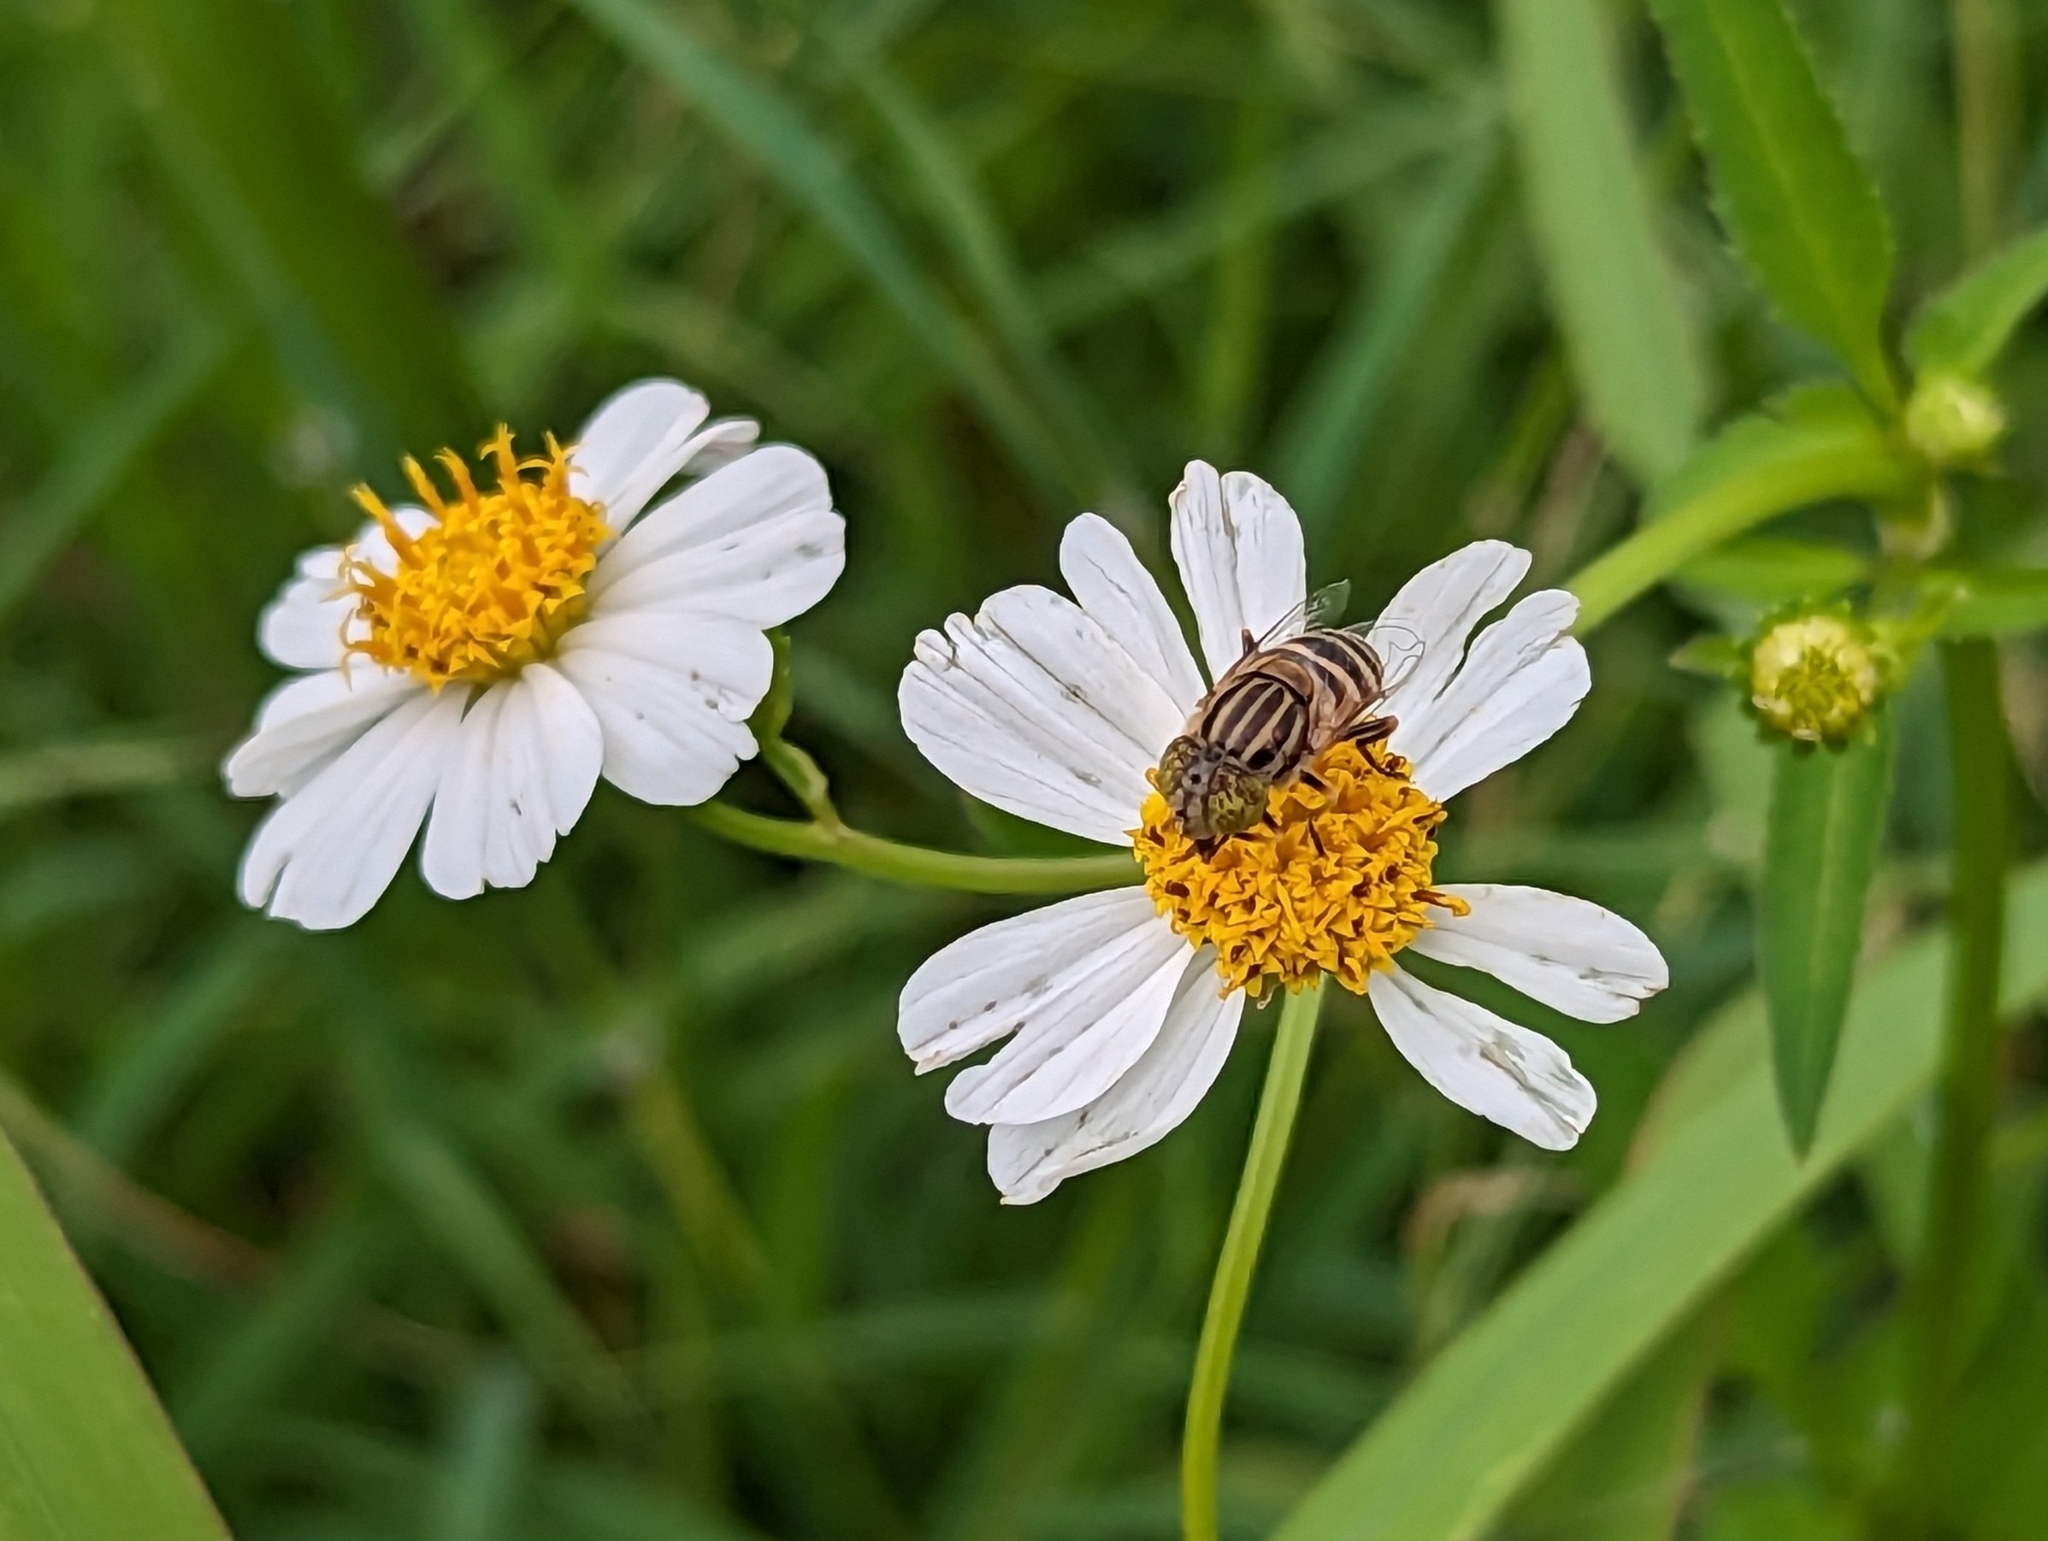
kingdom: Animalia
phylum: Arthropoda
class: Insecta
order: Diptera
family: Syrphidae
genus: Eristalinus
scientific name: Eristalinus megacephalus
